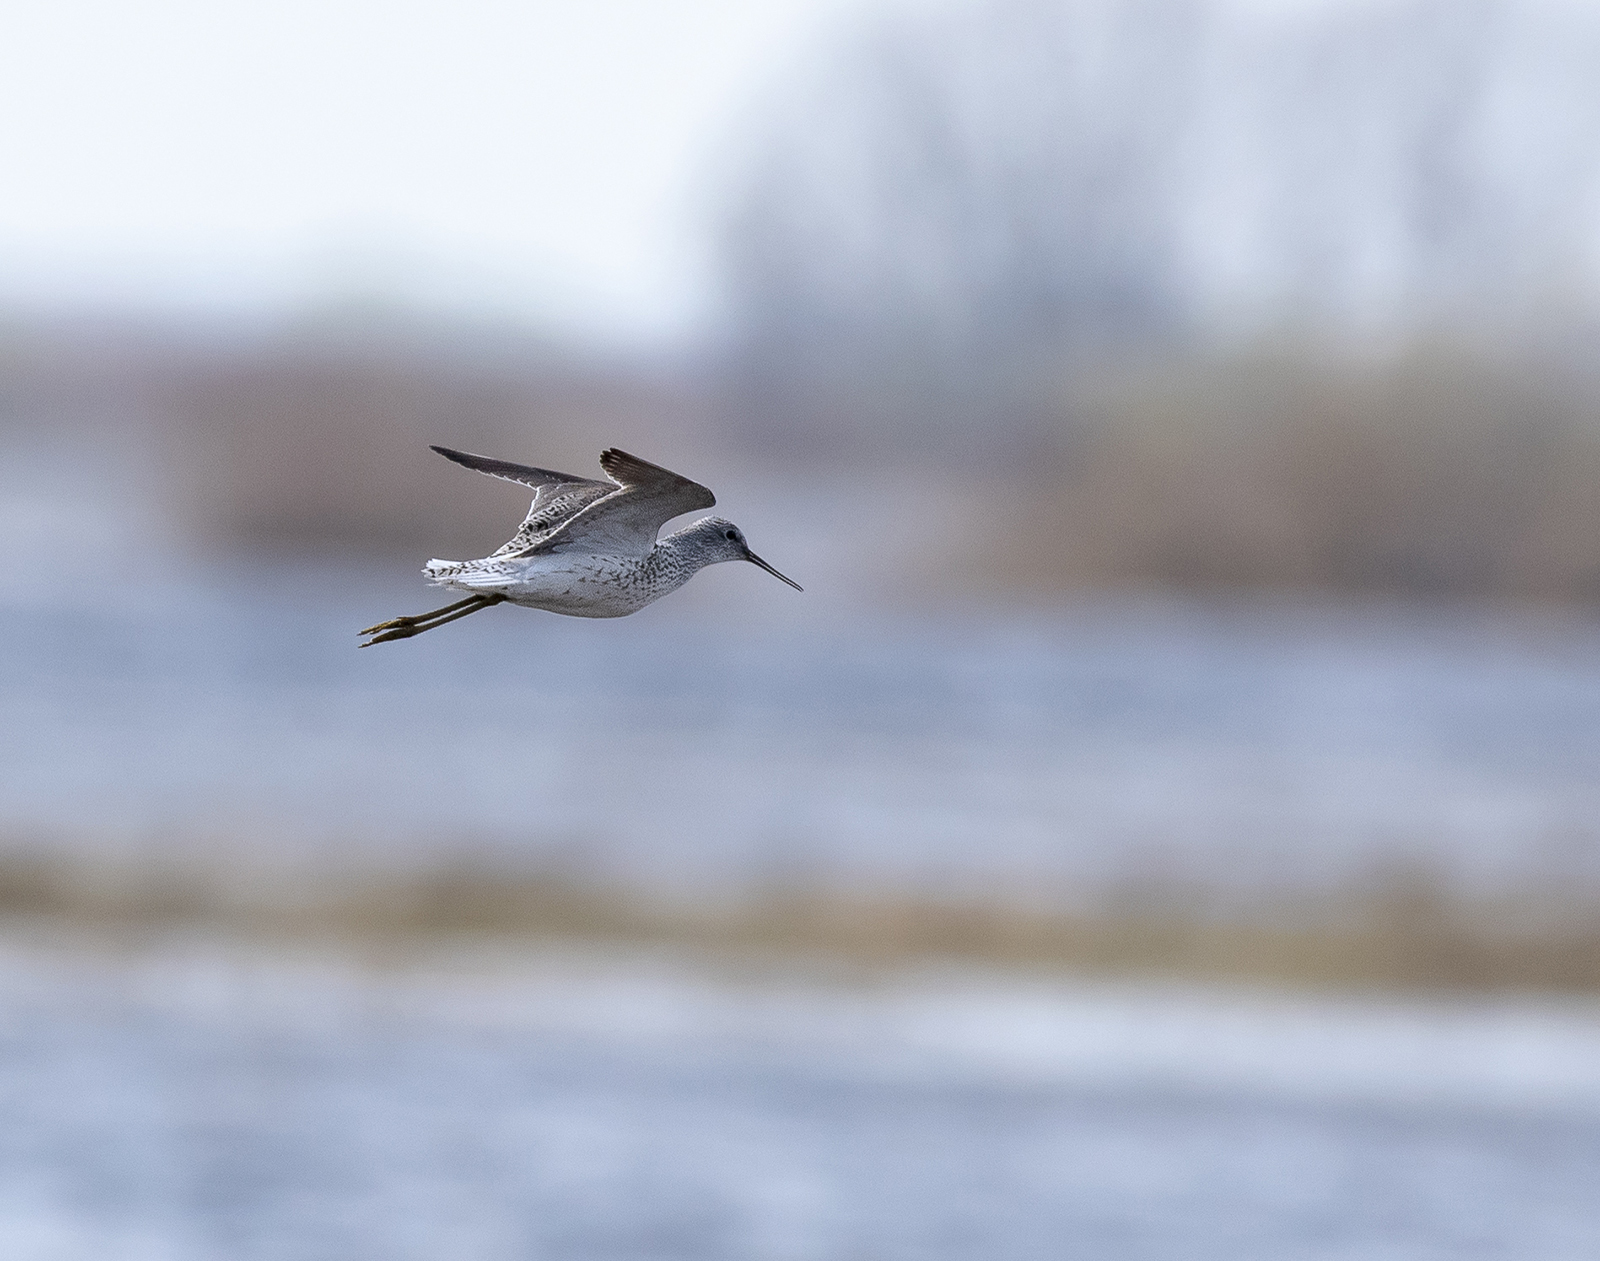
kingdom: Animalia
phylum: Chordata
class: Aves
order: Charadriiformes
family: Scolopacidae
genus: Tringa
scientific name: Tringa stagnatilis
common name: Marsh sandpiper
